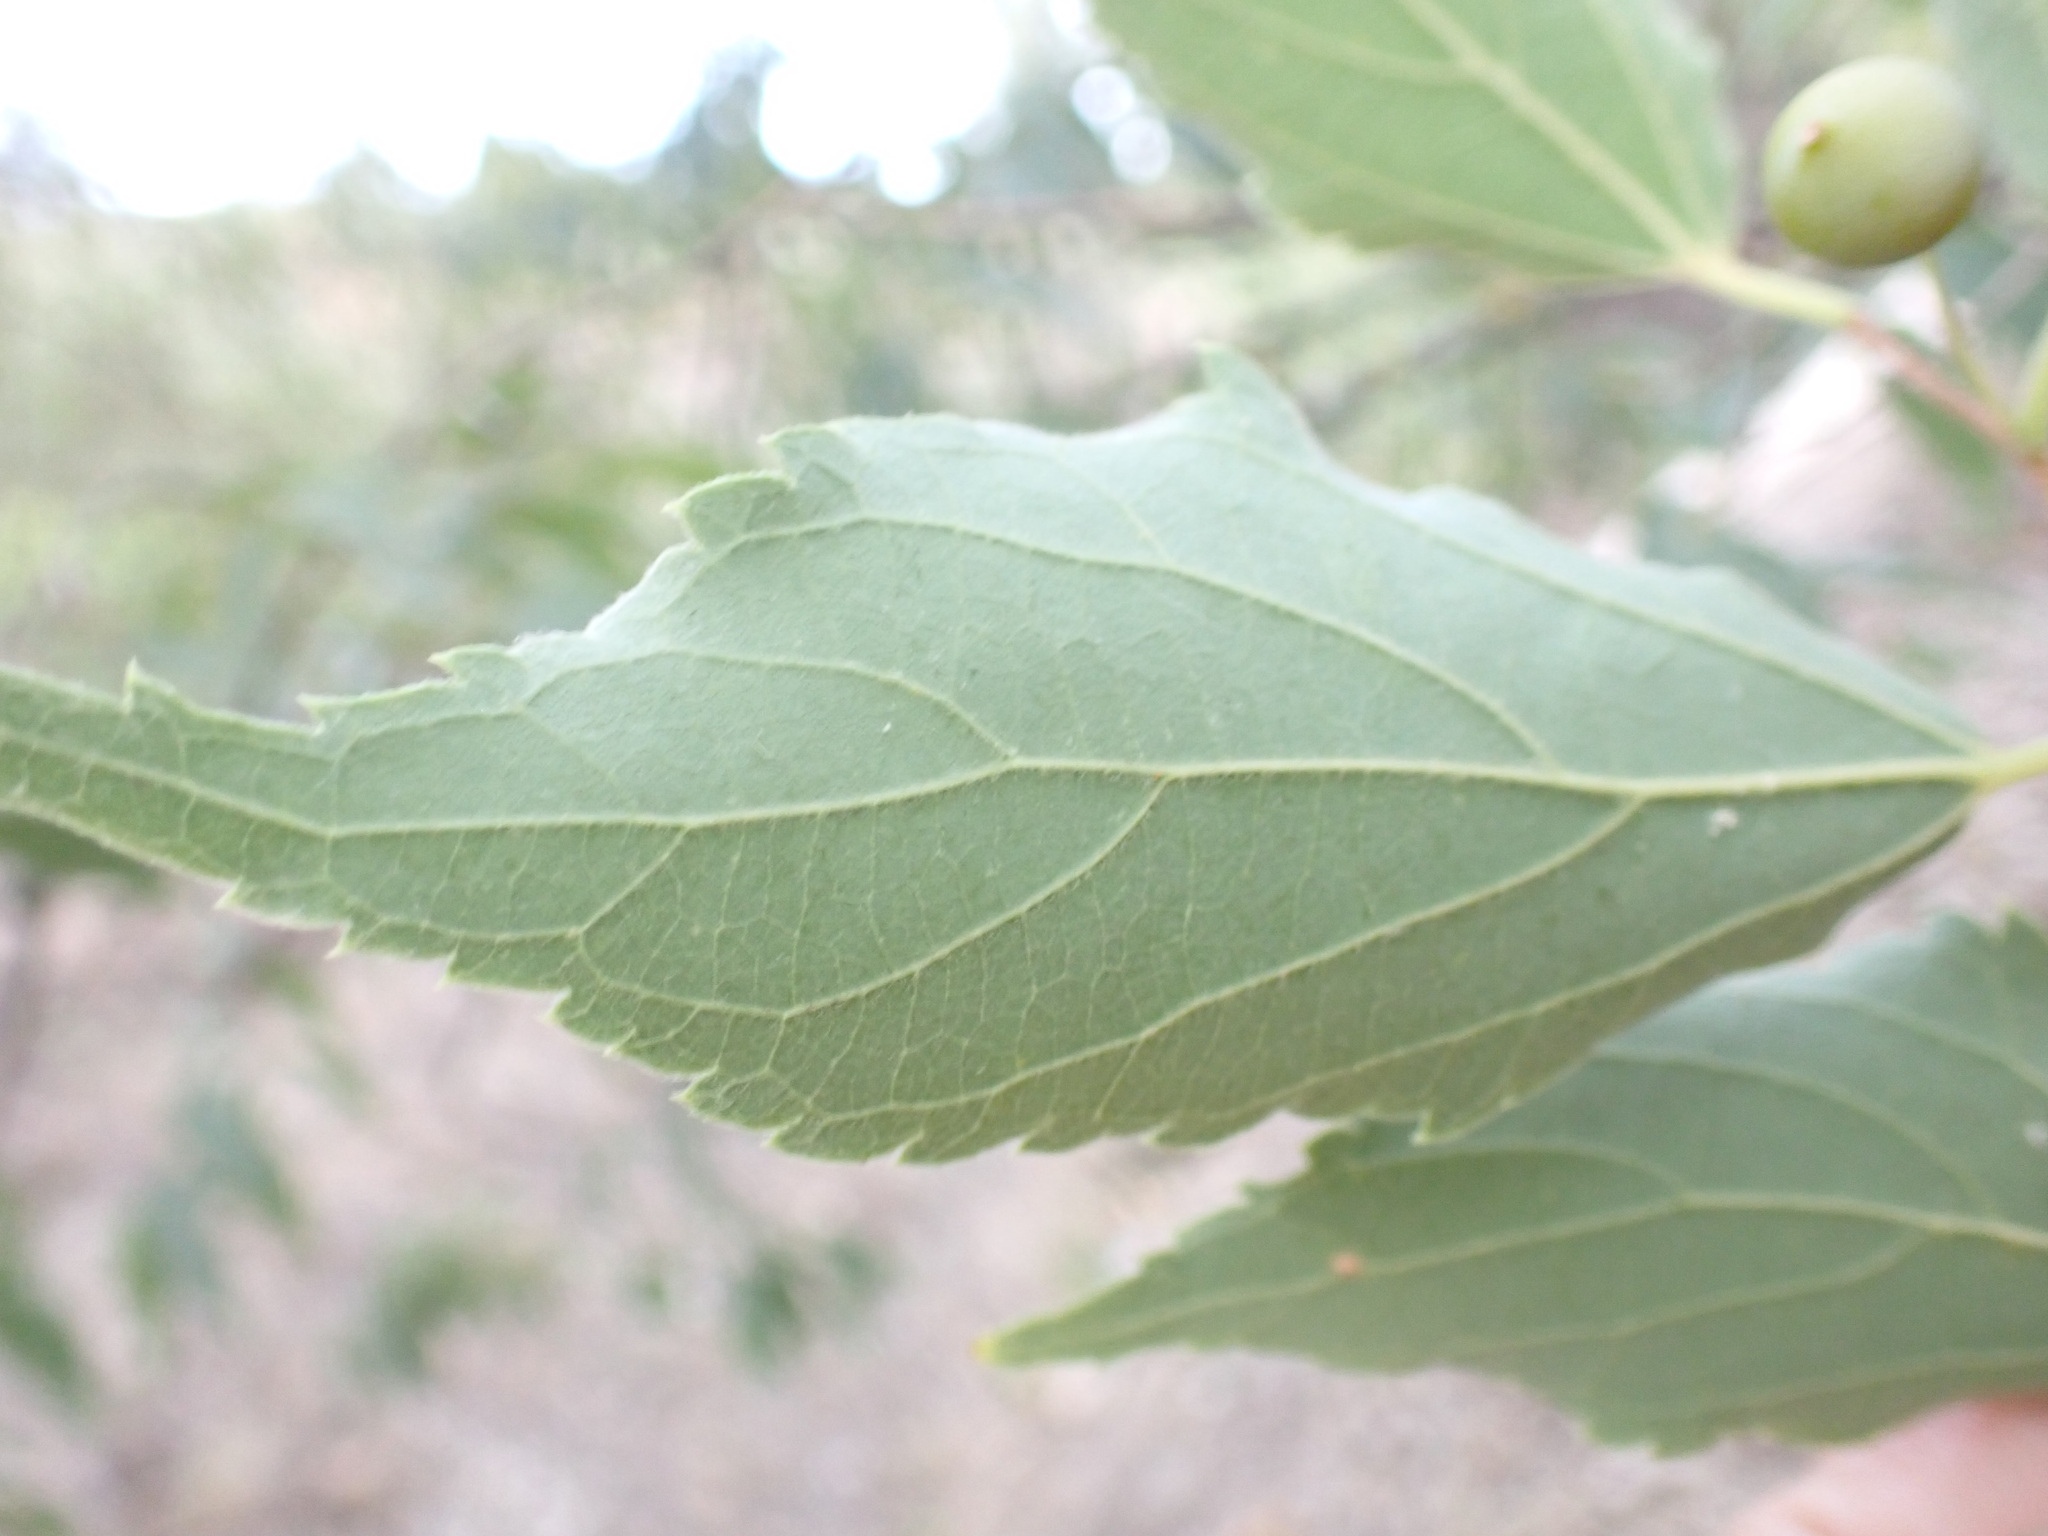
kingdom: Plantae
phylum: Tracheophyta
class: Magnoliopsida
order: Rosales
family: Cannabaceae
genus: Celtis
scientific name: Celtis australis
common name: European hackberry
